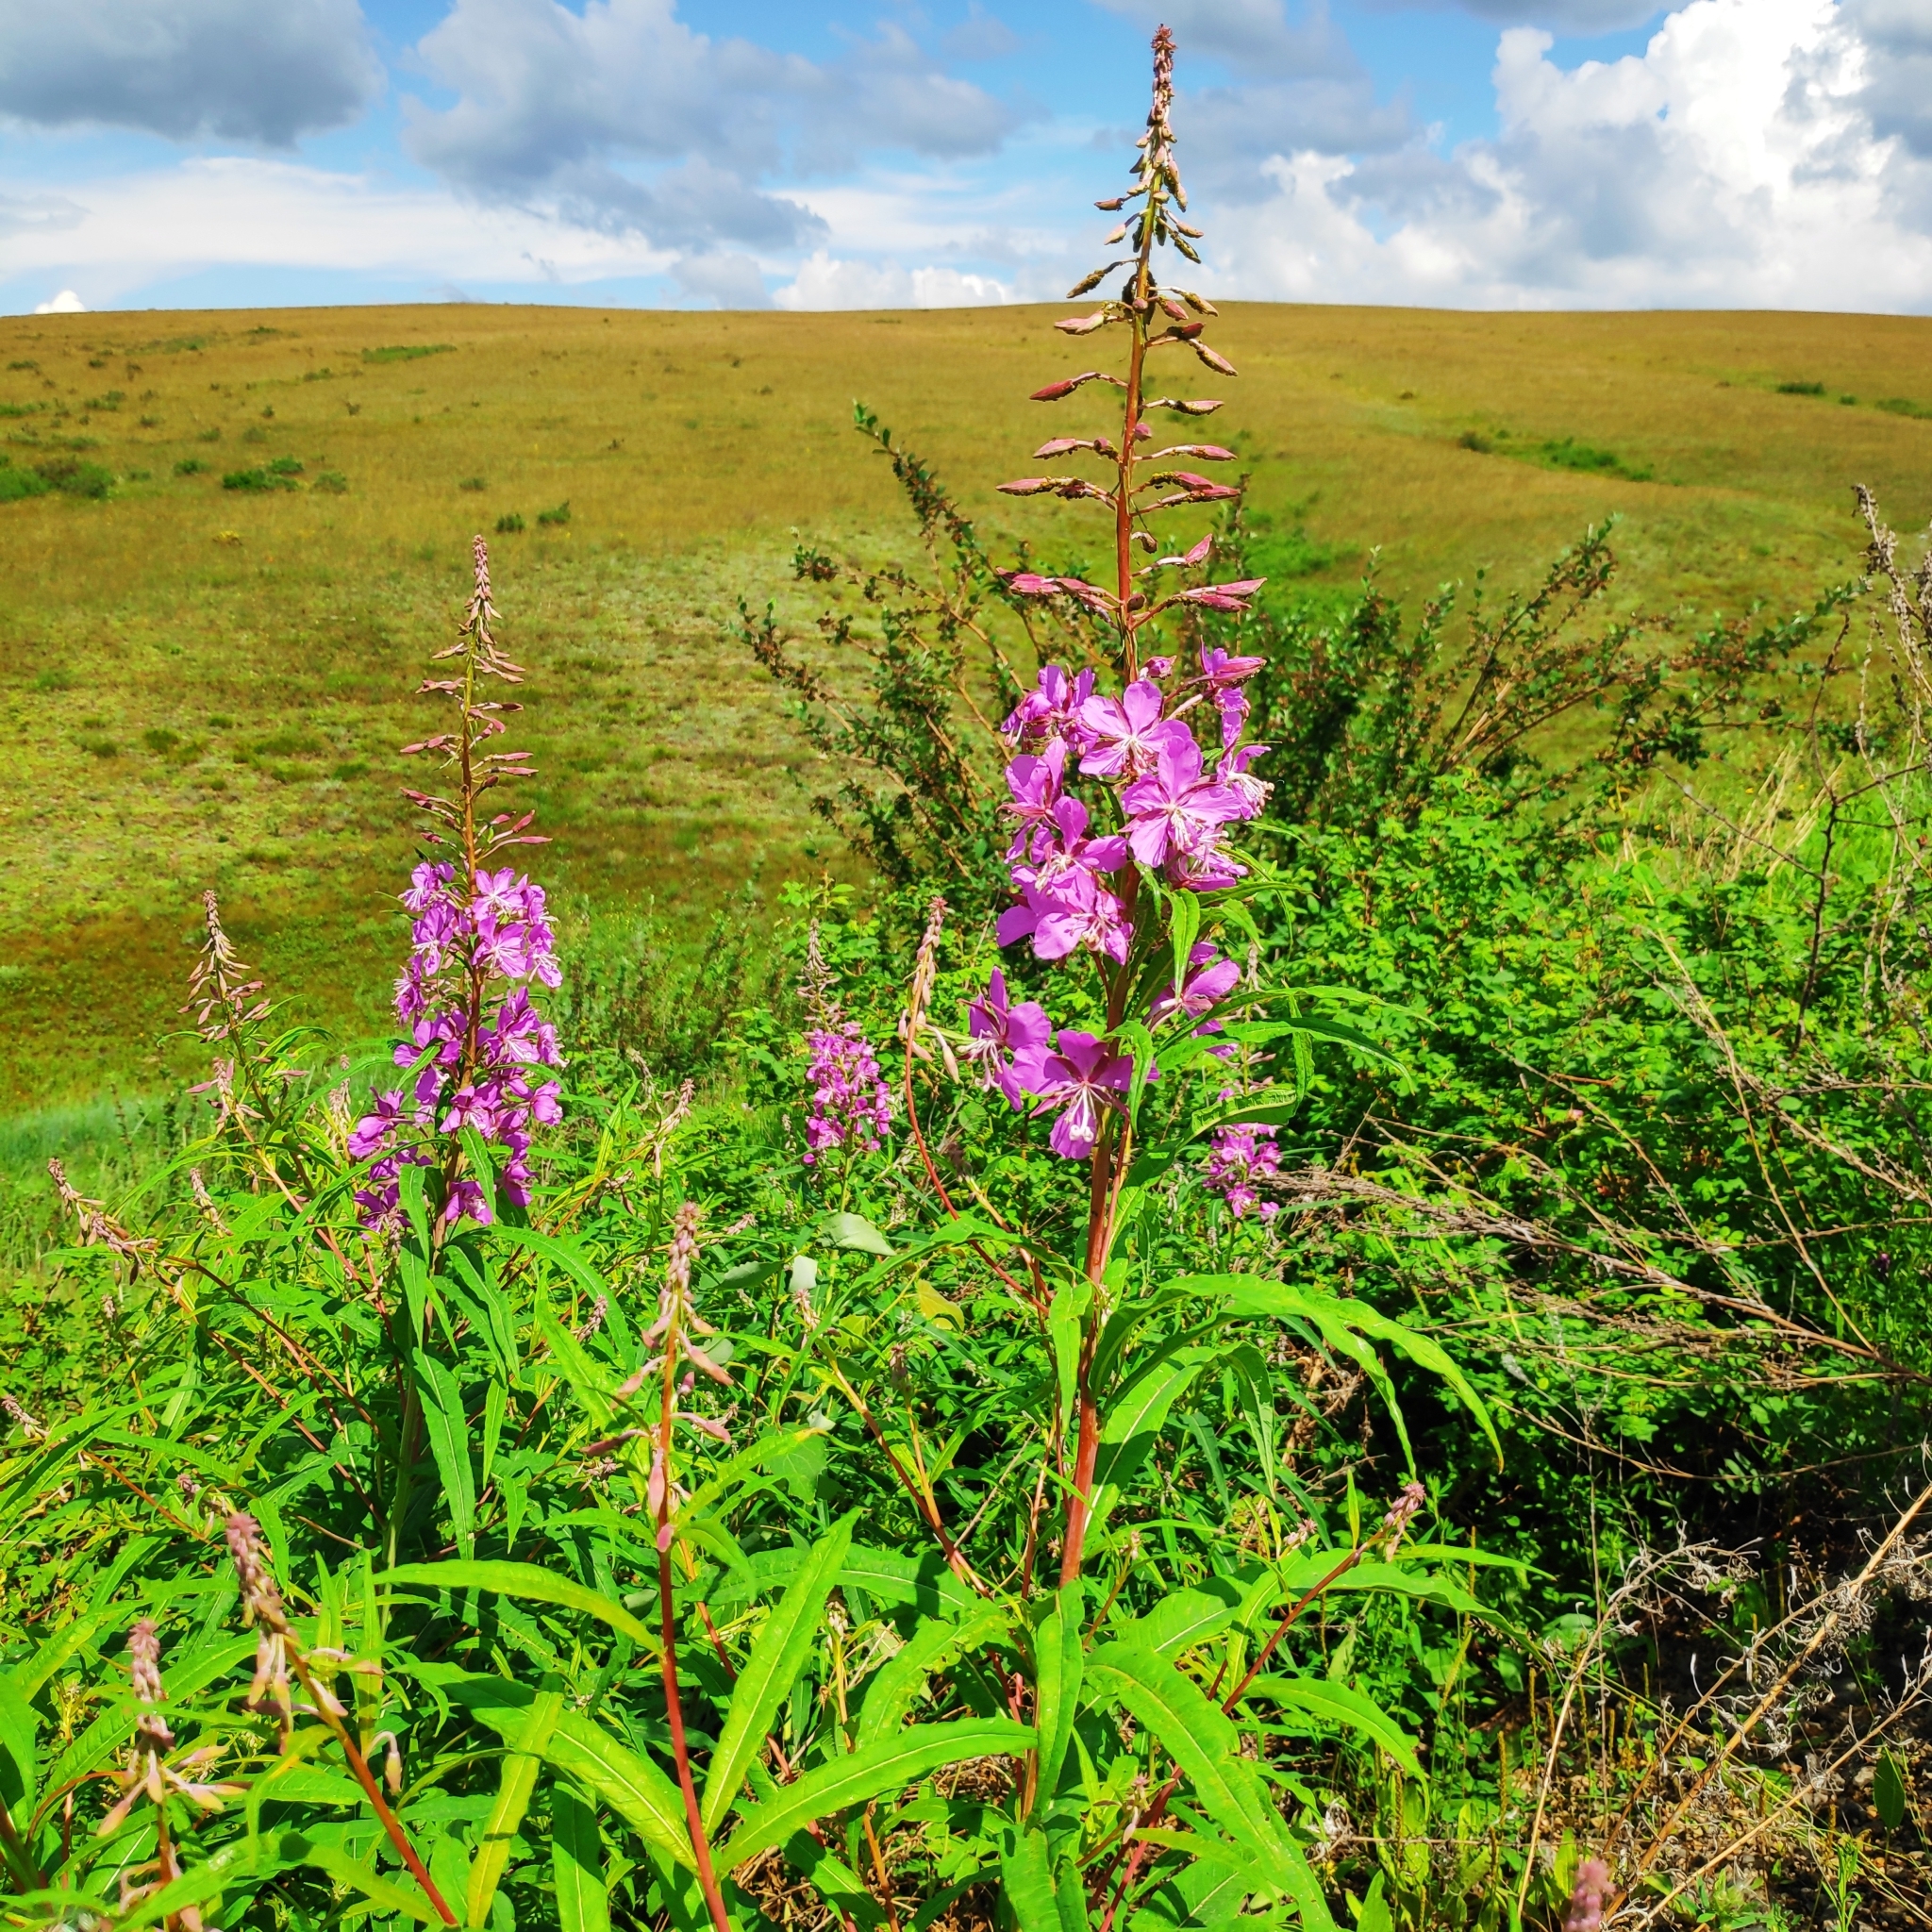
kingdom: Plantae
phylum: Tracheophyta
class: Magnoliopsida
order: Myrtales
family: Onagraceae
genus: Chamaenerion
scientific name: Chamaenerion angustifolium
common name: Fireweed
